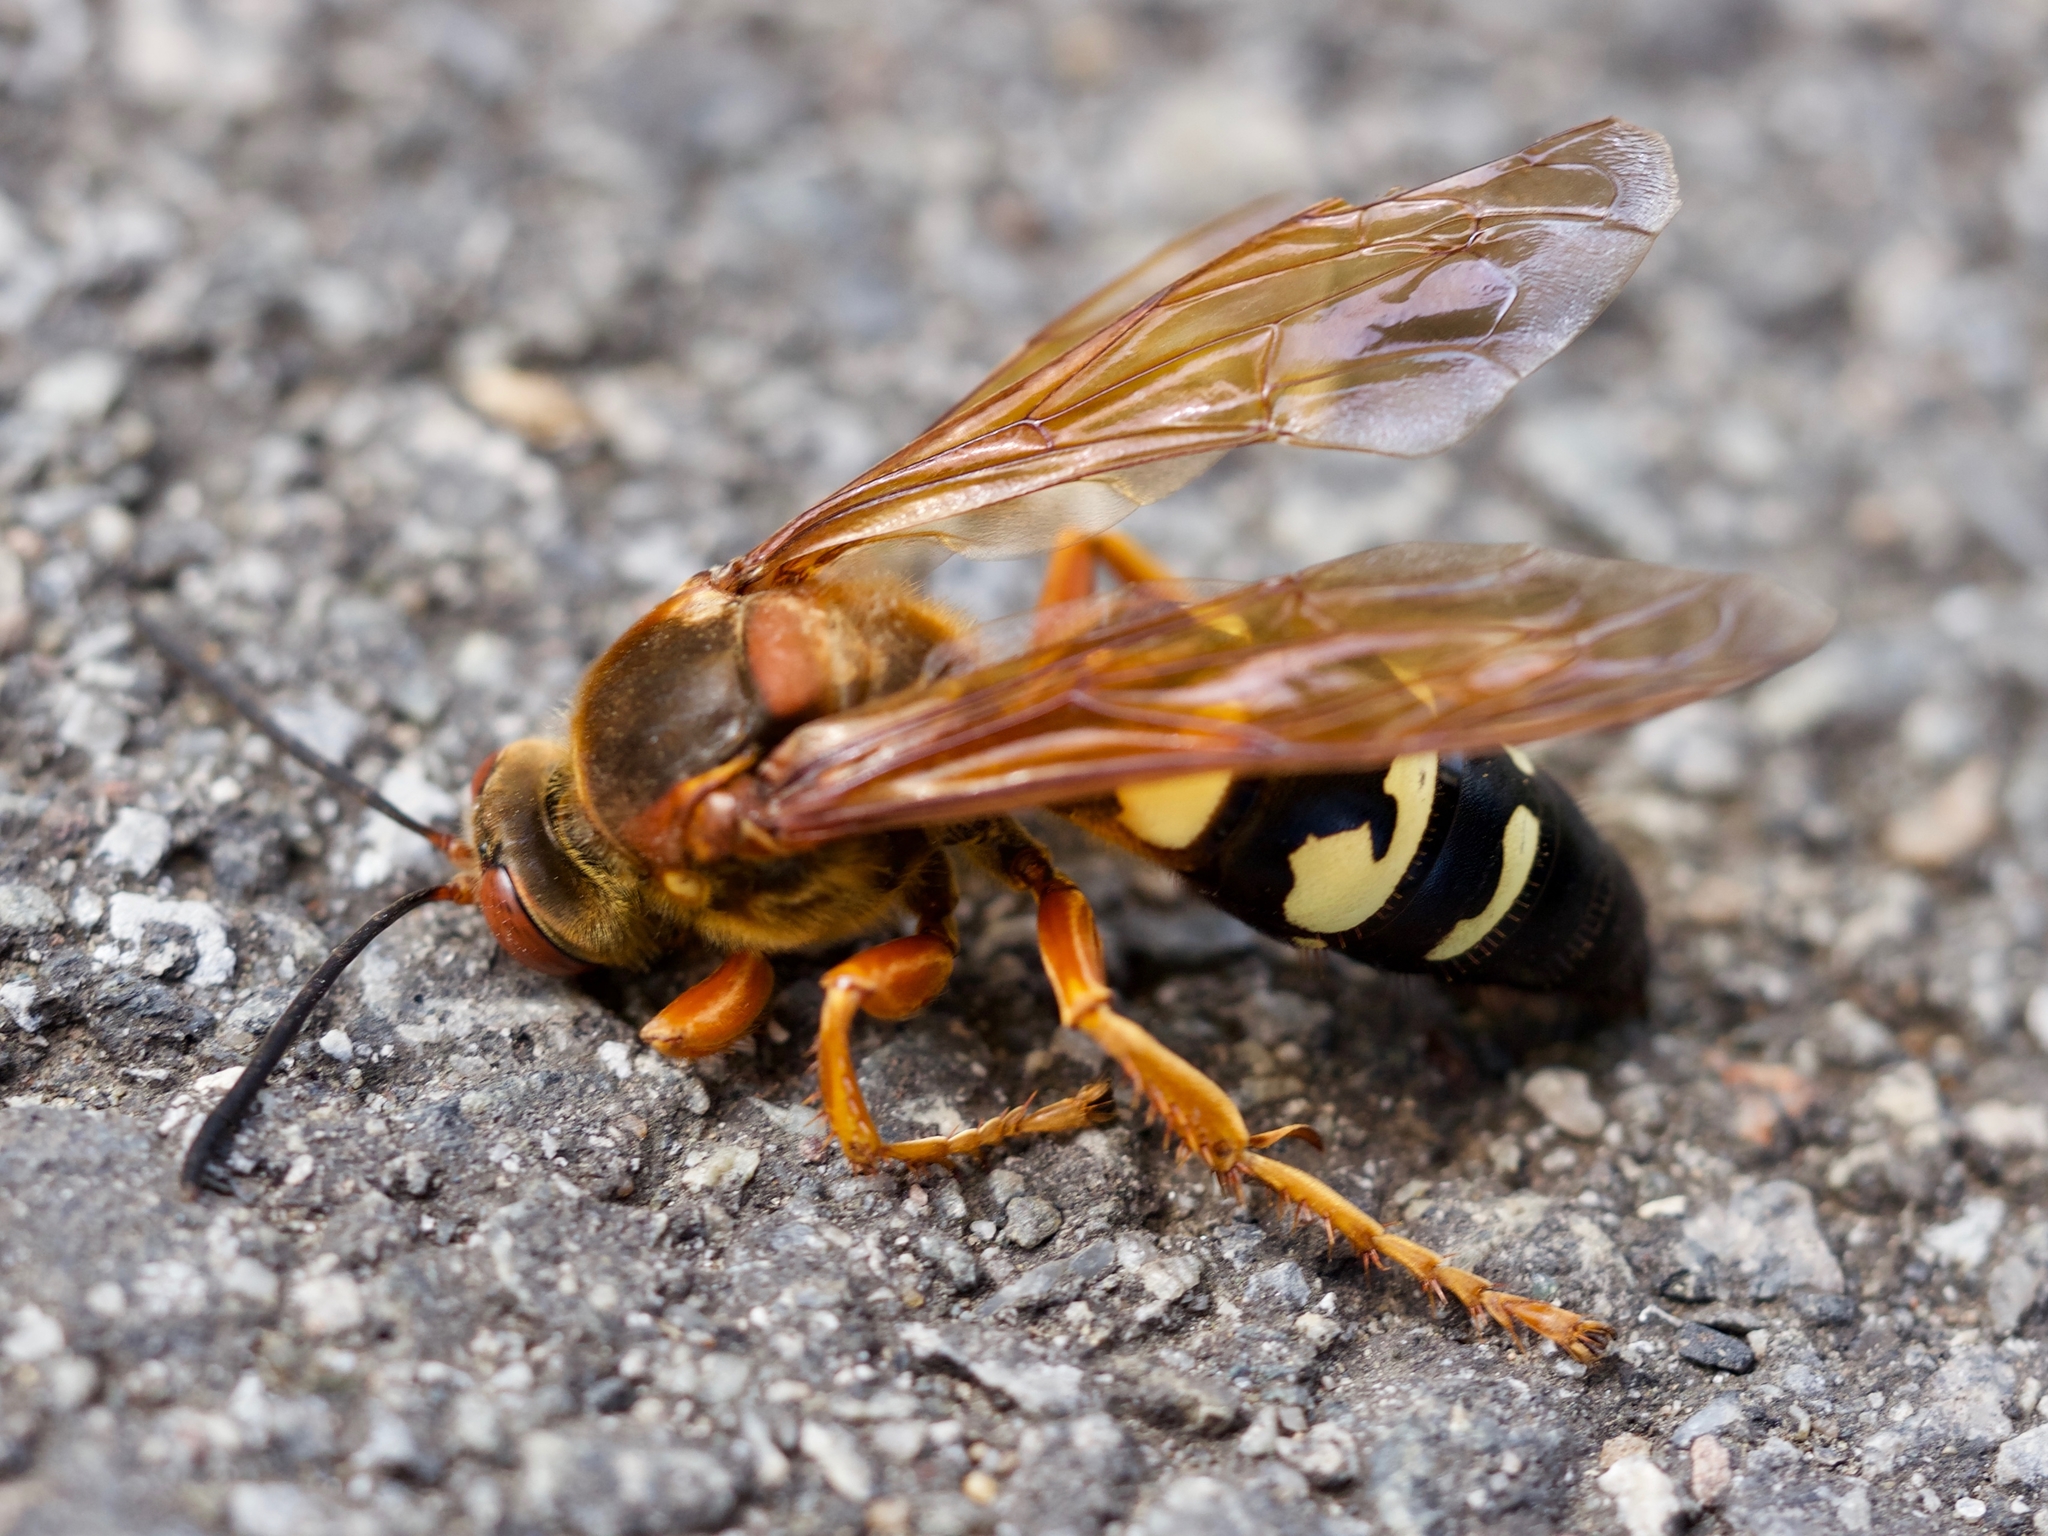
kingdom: Animalia
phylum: Arthropoda
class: Insecta
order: Hymenoptera
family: Crabronidae
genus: Sphecius
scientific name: Sphecius speciosus
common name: Cicada killer
